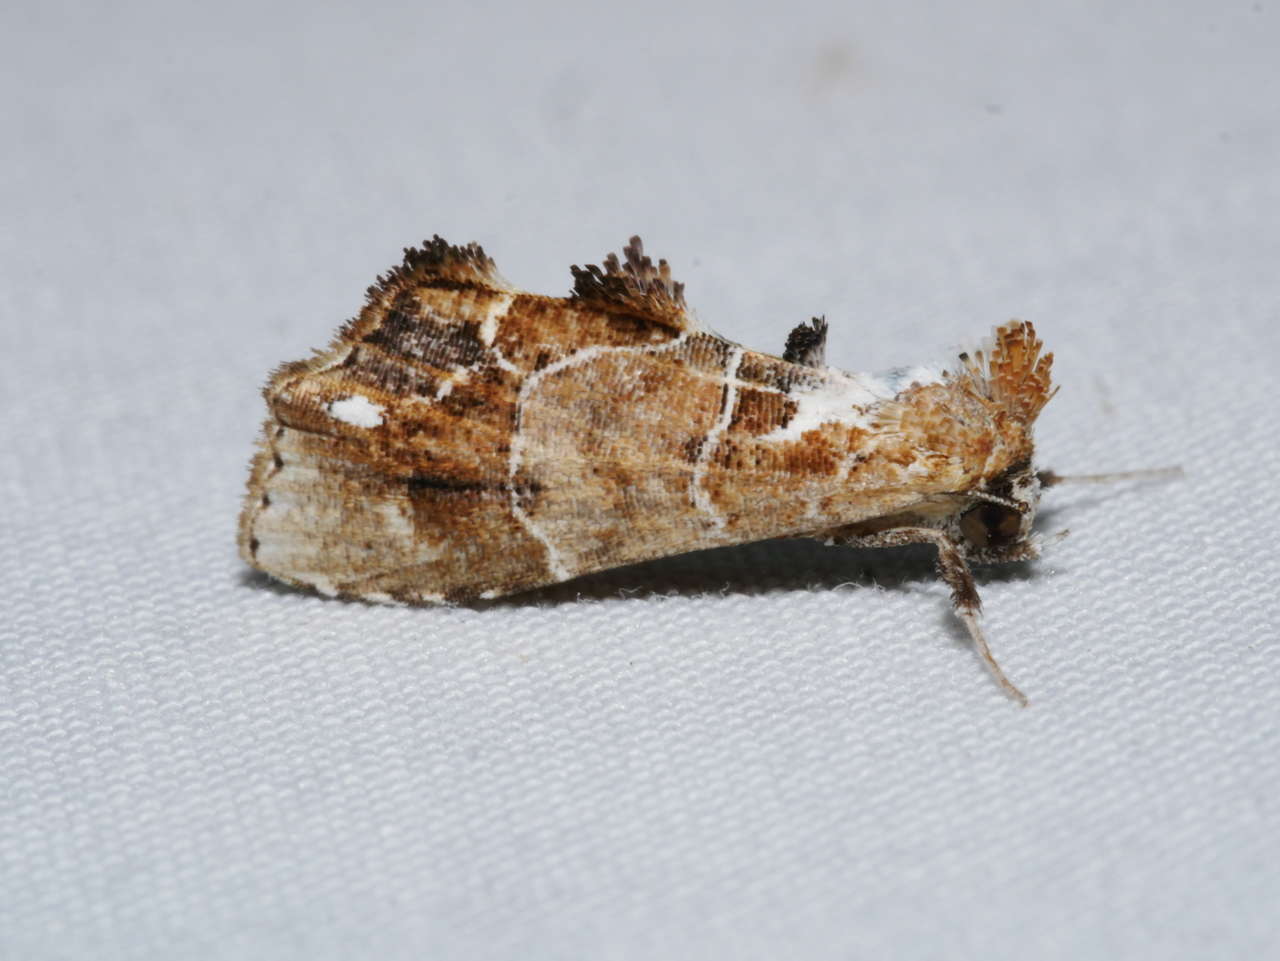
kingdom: Animalia
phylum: Arthropoda
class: Insecta
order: Lepidoptera
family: Erebidae
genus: Arrade
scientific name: Arrade leucocosmalis
